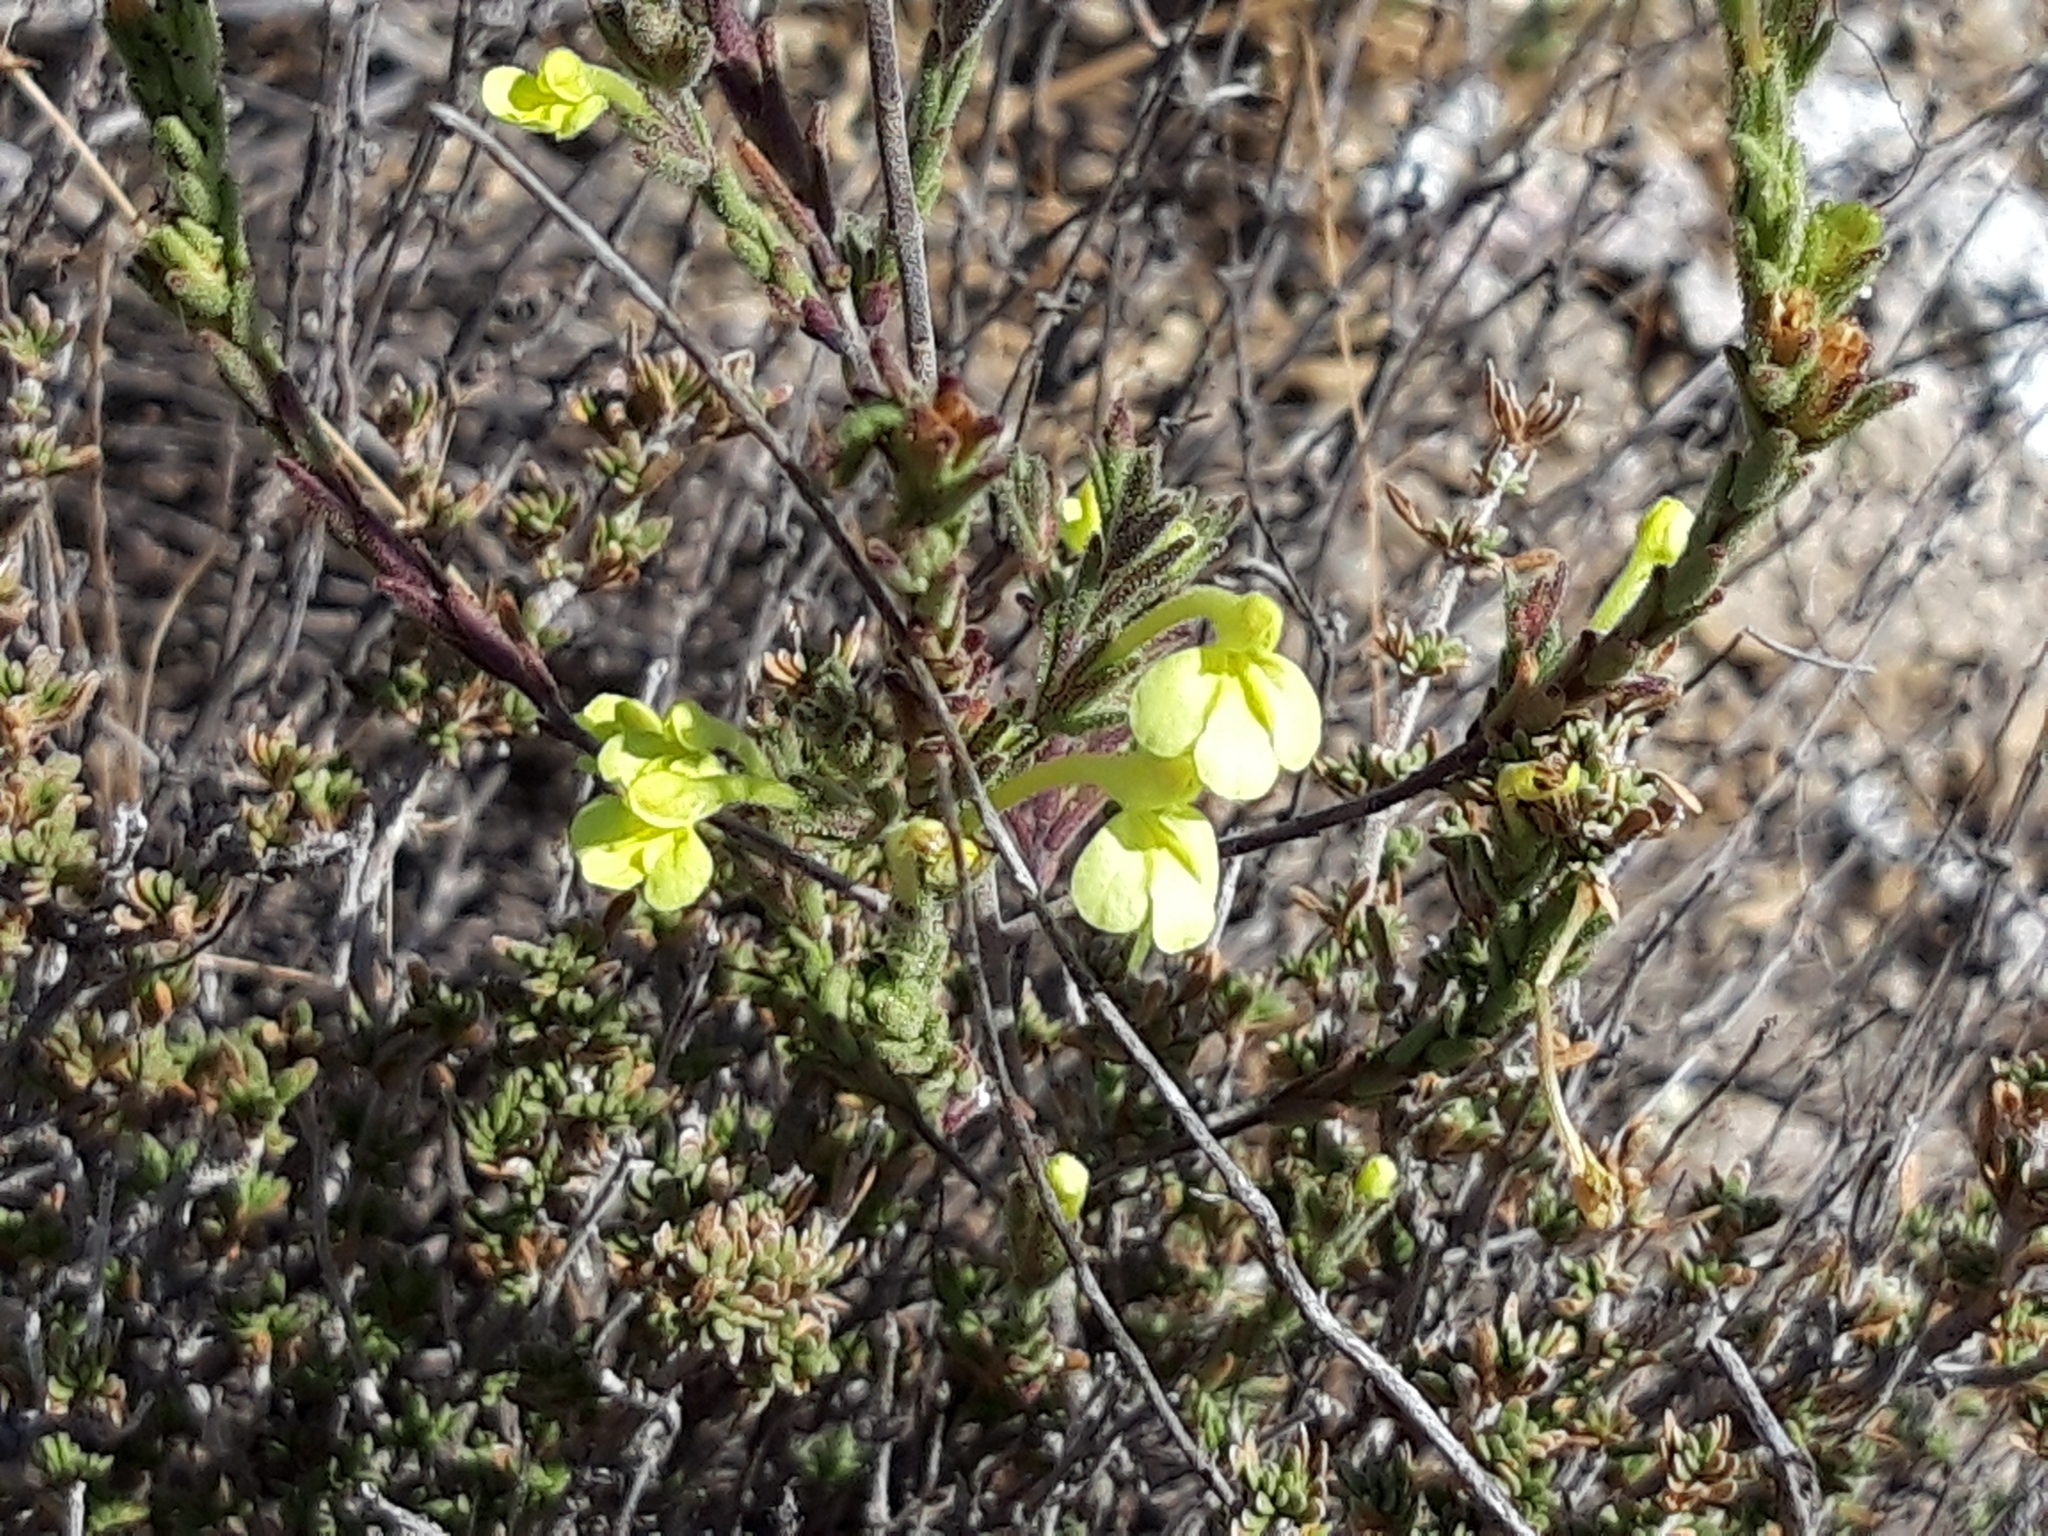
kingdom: Plantae
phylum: Tracheophyta
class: Magnoliopsida
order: Lamiales
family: Orobanchaceae
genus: Odontites
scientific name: Odontites longiflorus
